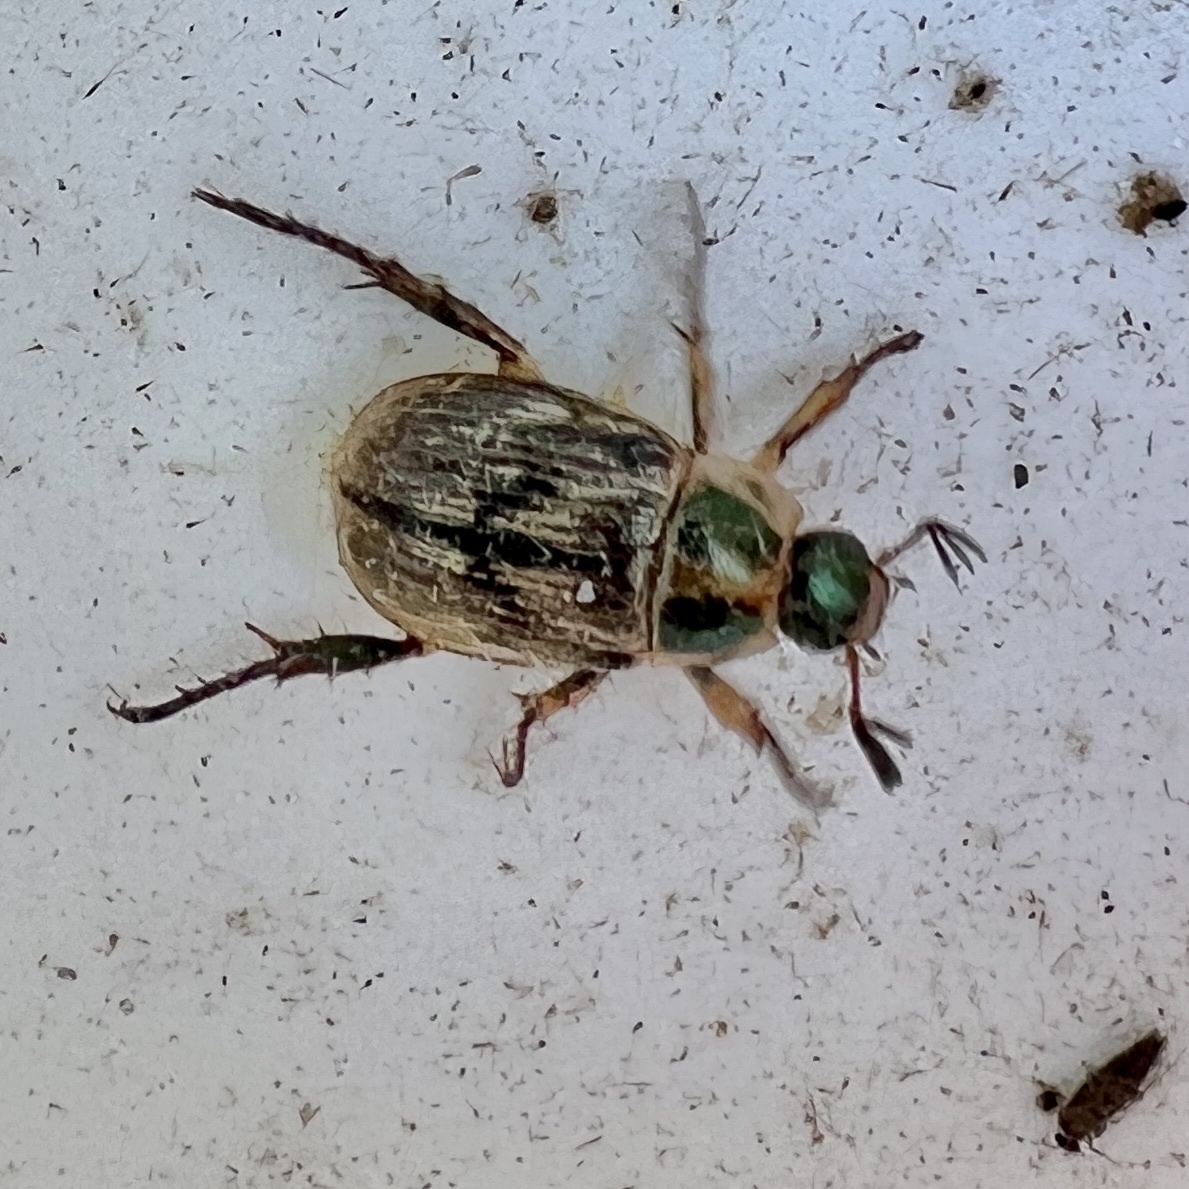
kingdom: Animalia
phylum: Arthropoda
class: Insecta
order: Coleoptera
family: Scarabaeidae
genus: Exomala
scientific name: Exomala orientalis
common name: Oriental beetle
